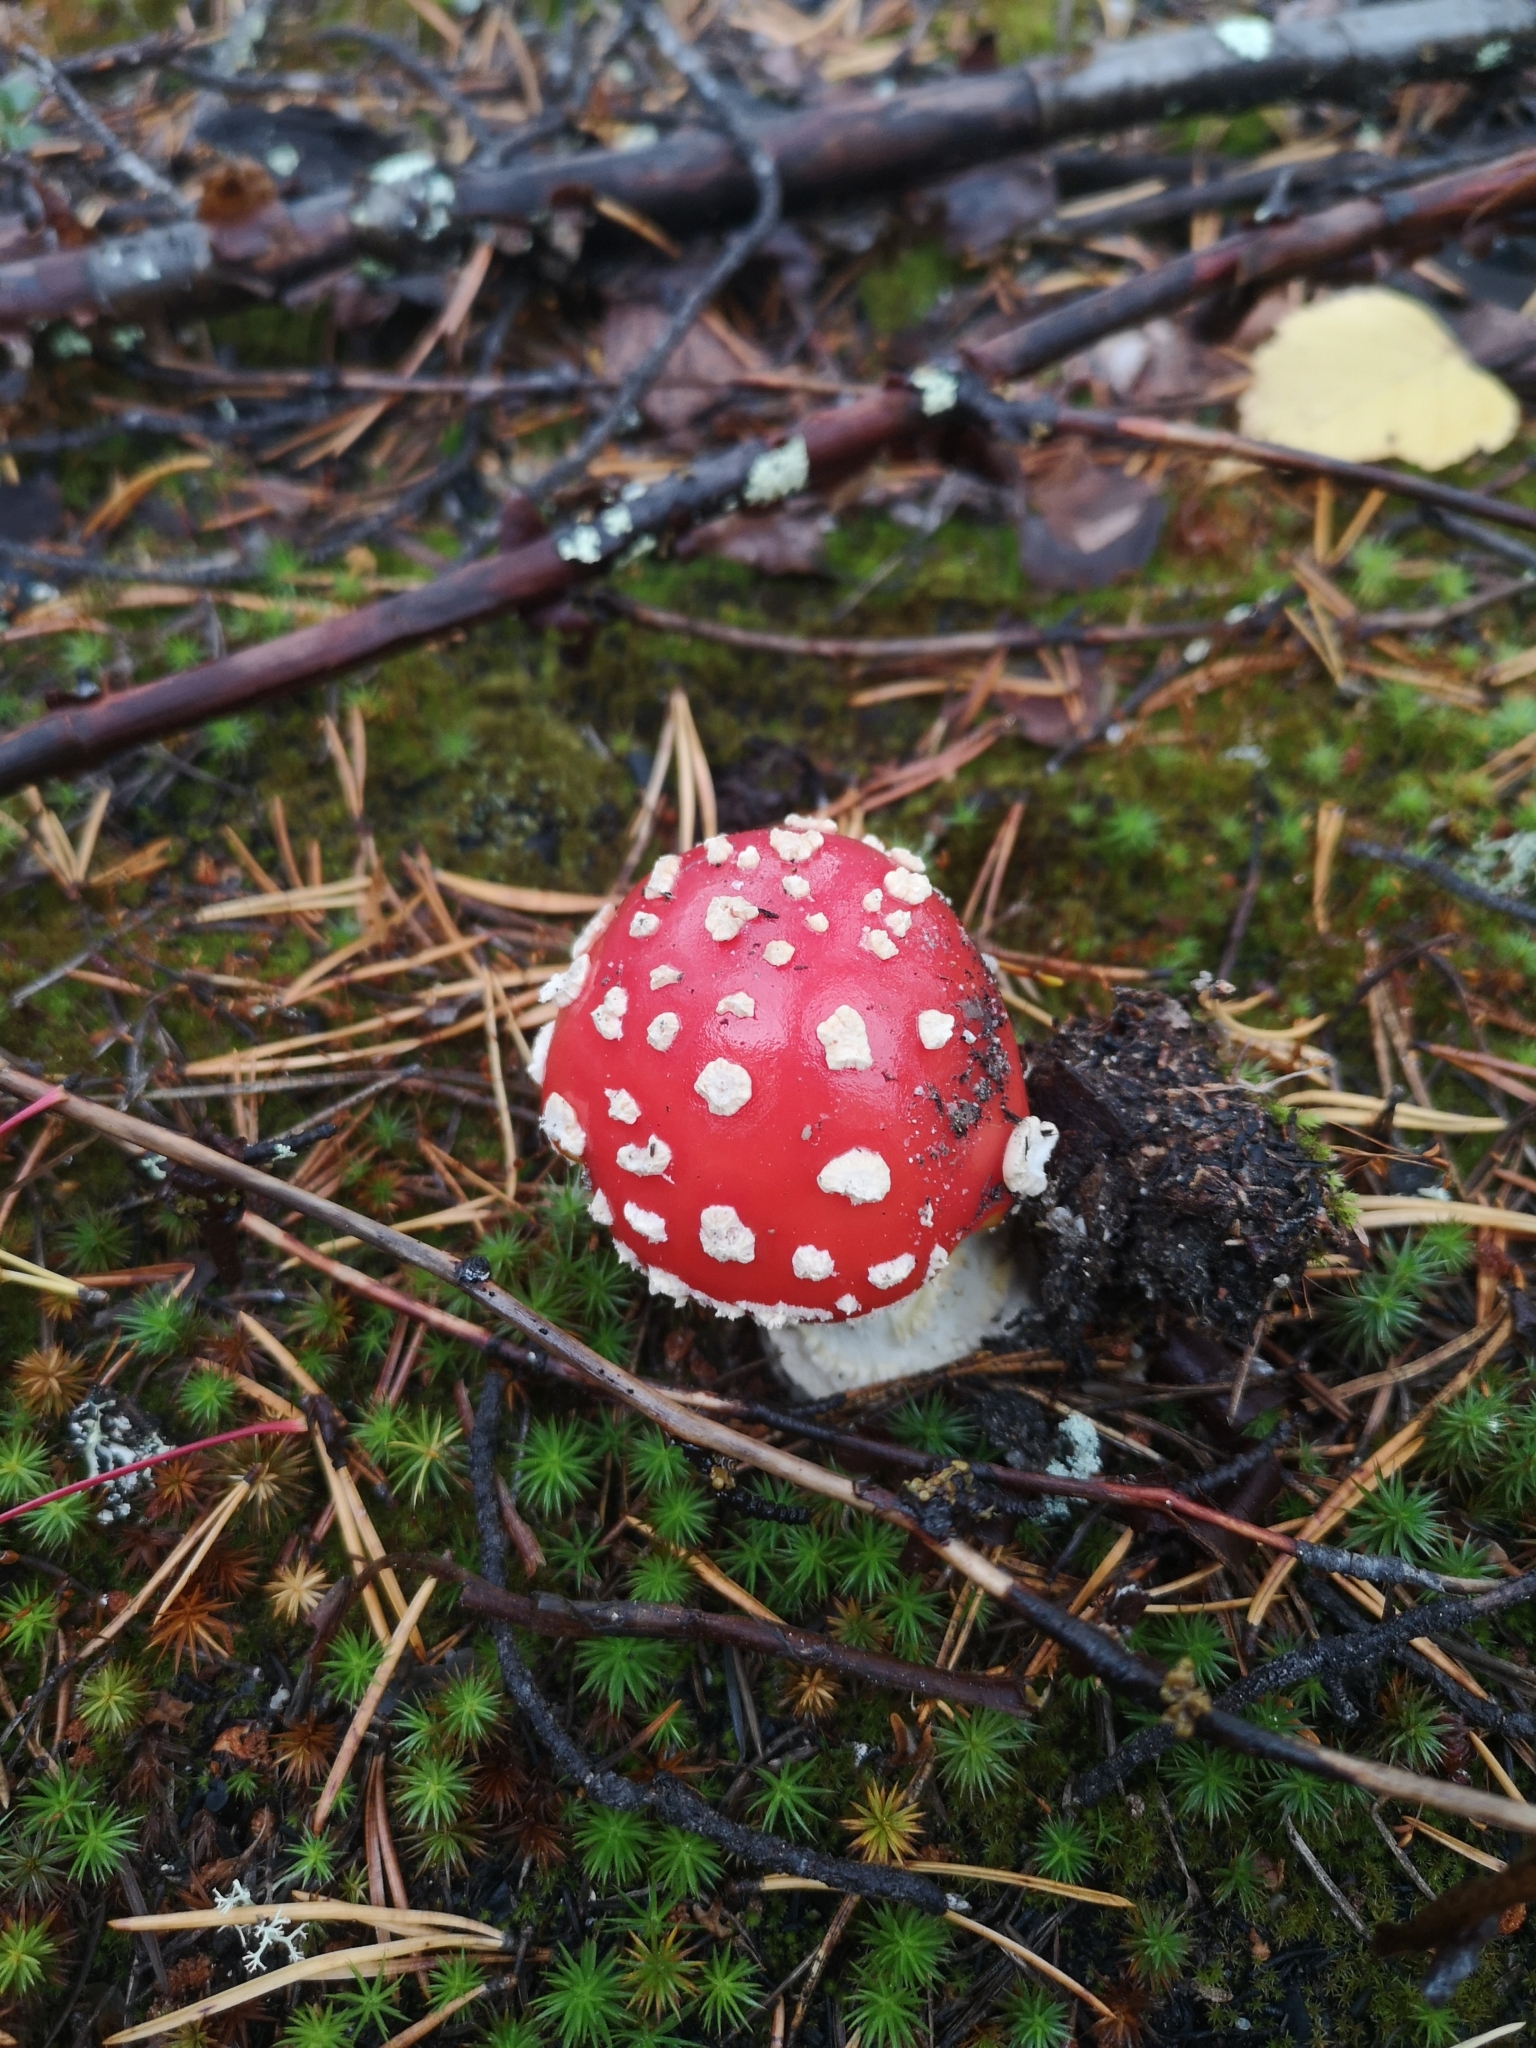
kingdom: Fungi
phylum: Basidiomycota
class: Agaricomycetes
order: Agaricales
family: Amanitaceae
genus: Amanita
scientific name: Amanita muscaria
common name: Fly agaric
